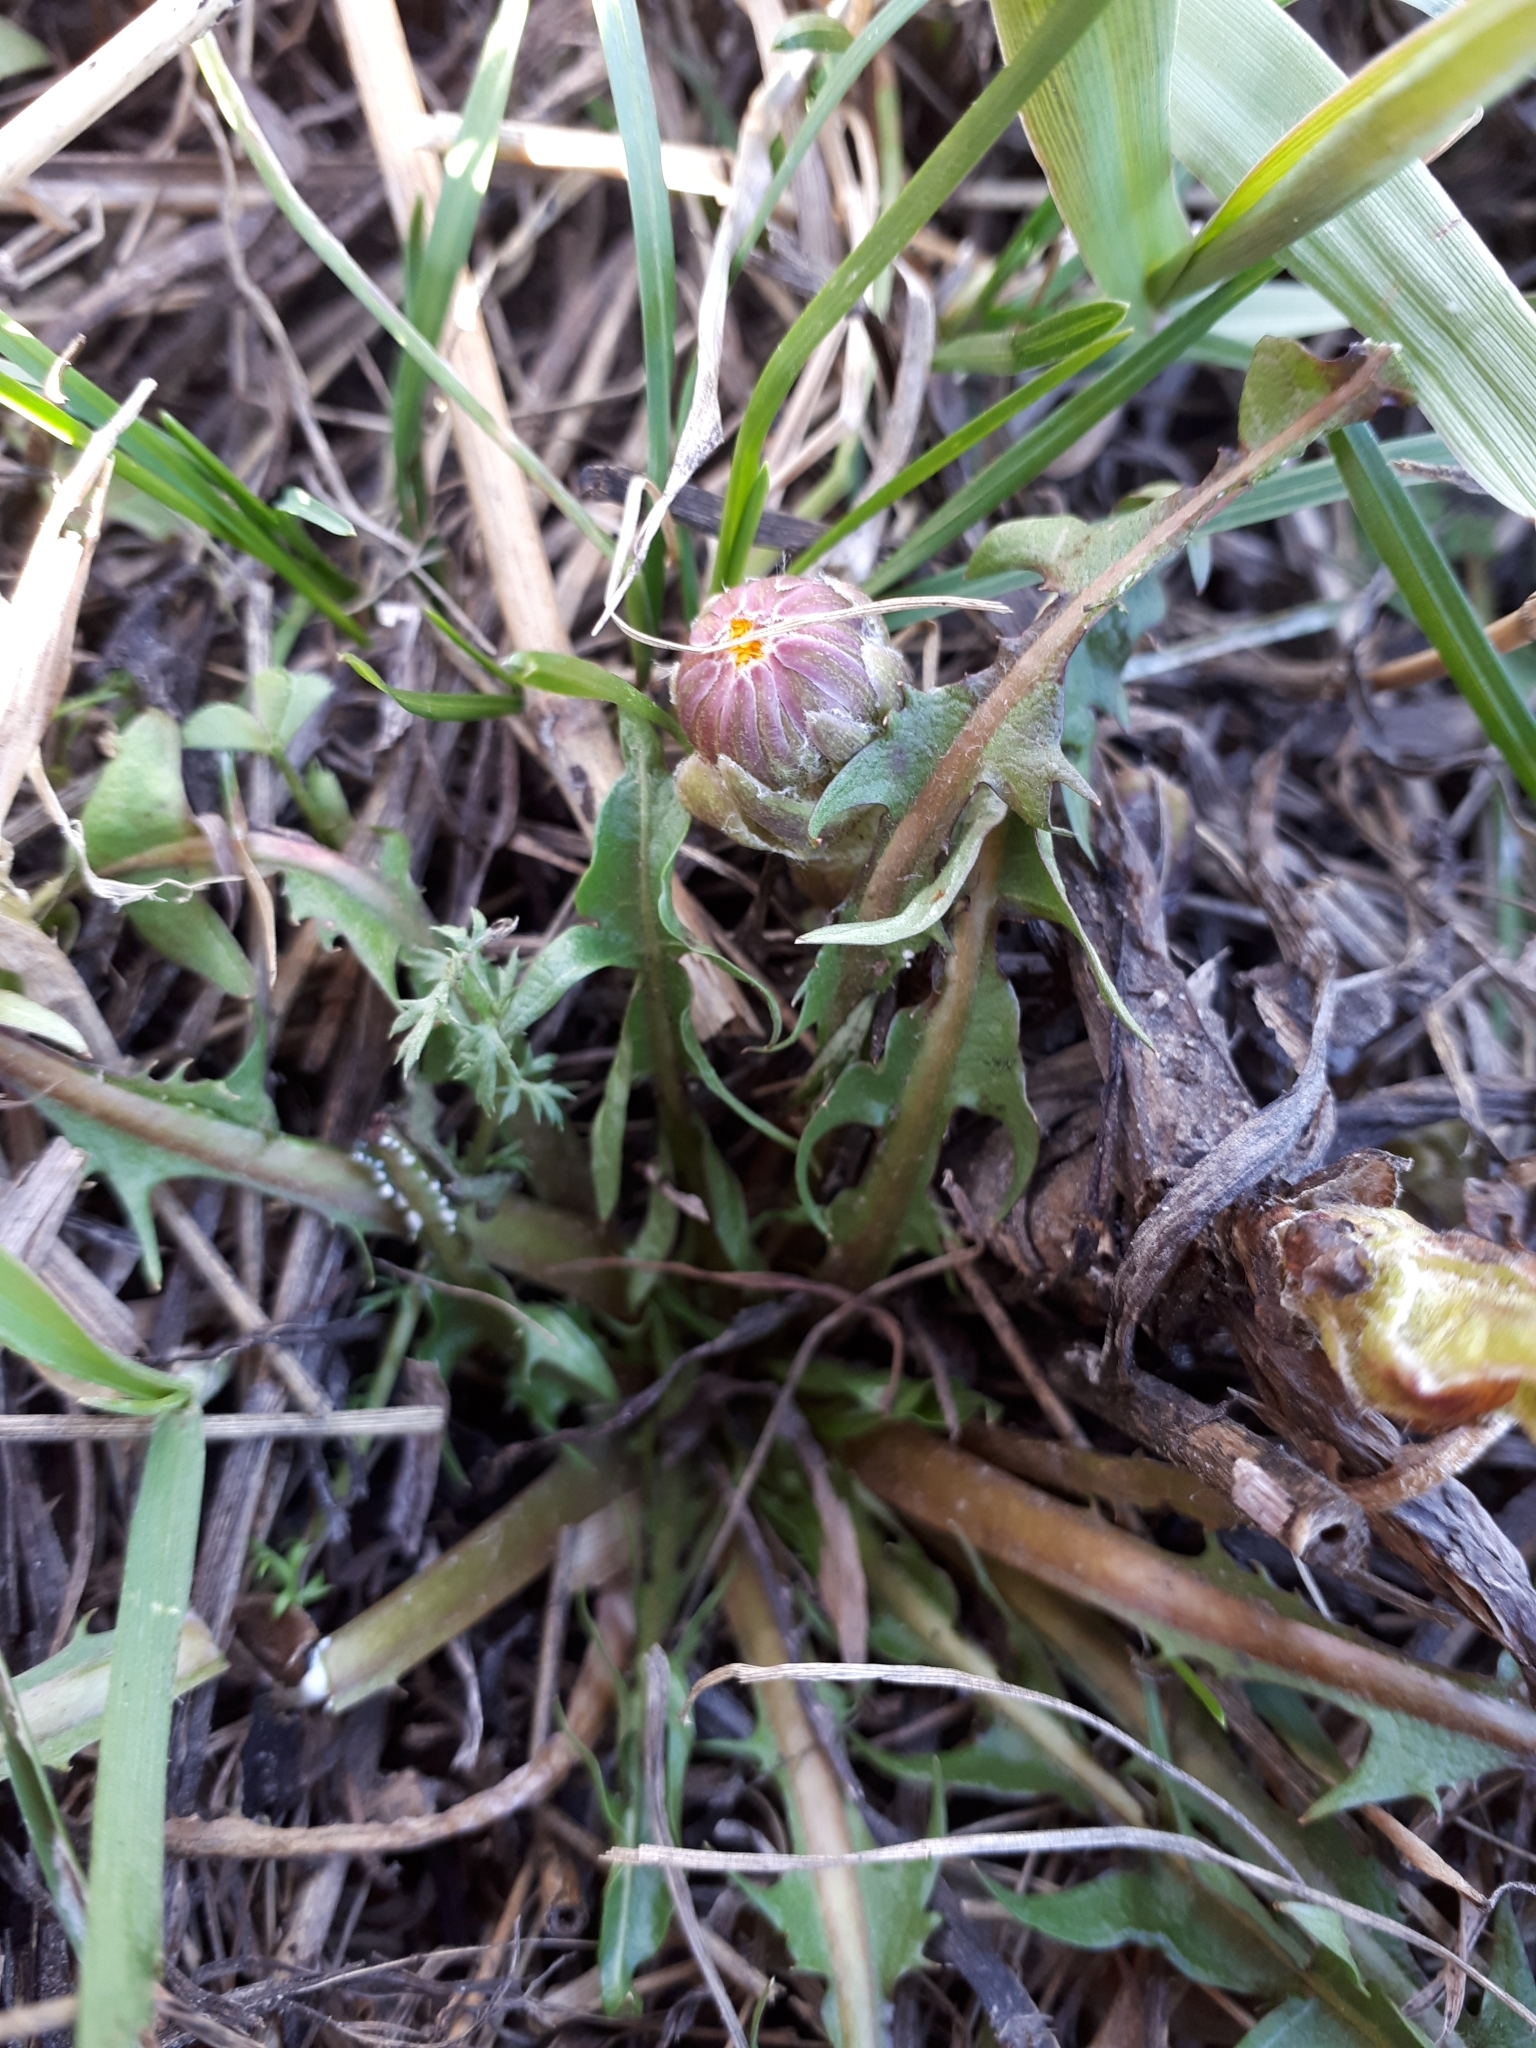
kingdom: Plantae
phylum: Tracheophyta
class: Magnoliopsida
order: Asterales
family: Asteraceae
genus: Tussilago
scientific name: Tussilago farfara
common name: Coltsfoot
